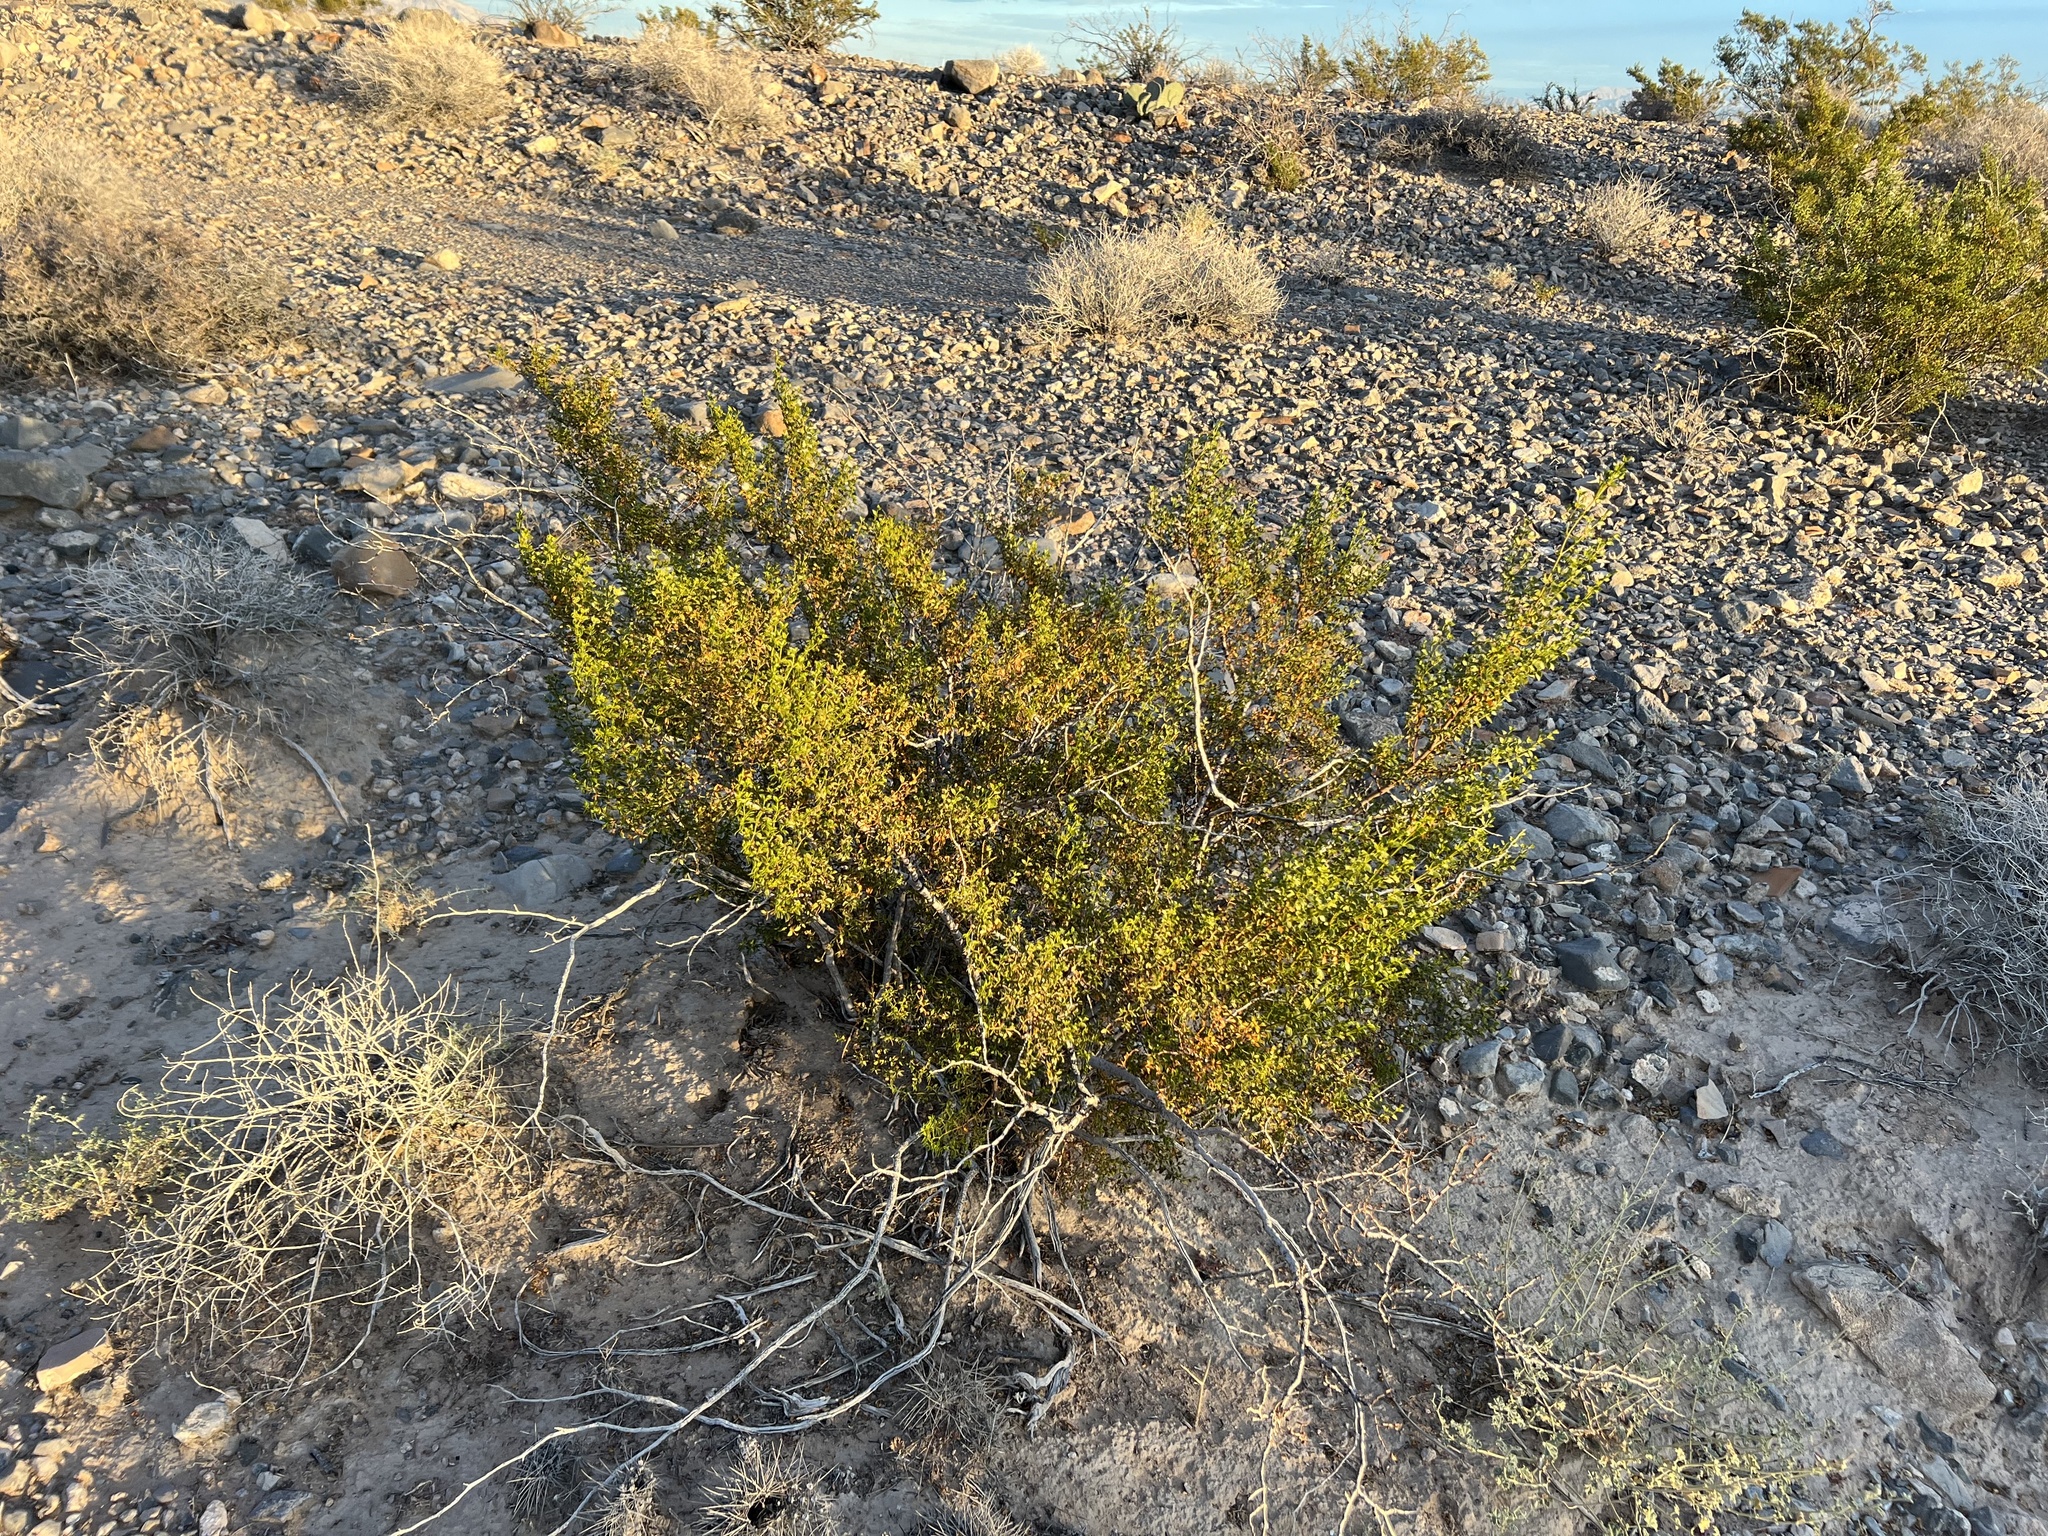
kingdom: Plantae
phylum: Tracheophyta
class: Magnoliopsida
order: Zygophyllales
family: Zygophyllaceae
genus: Larrea
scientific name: Larrea tridentata
